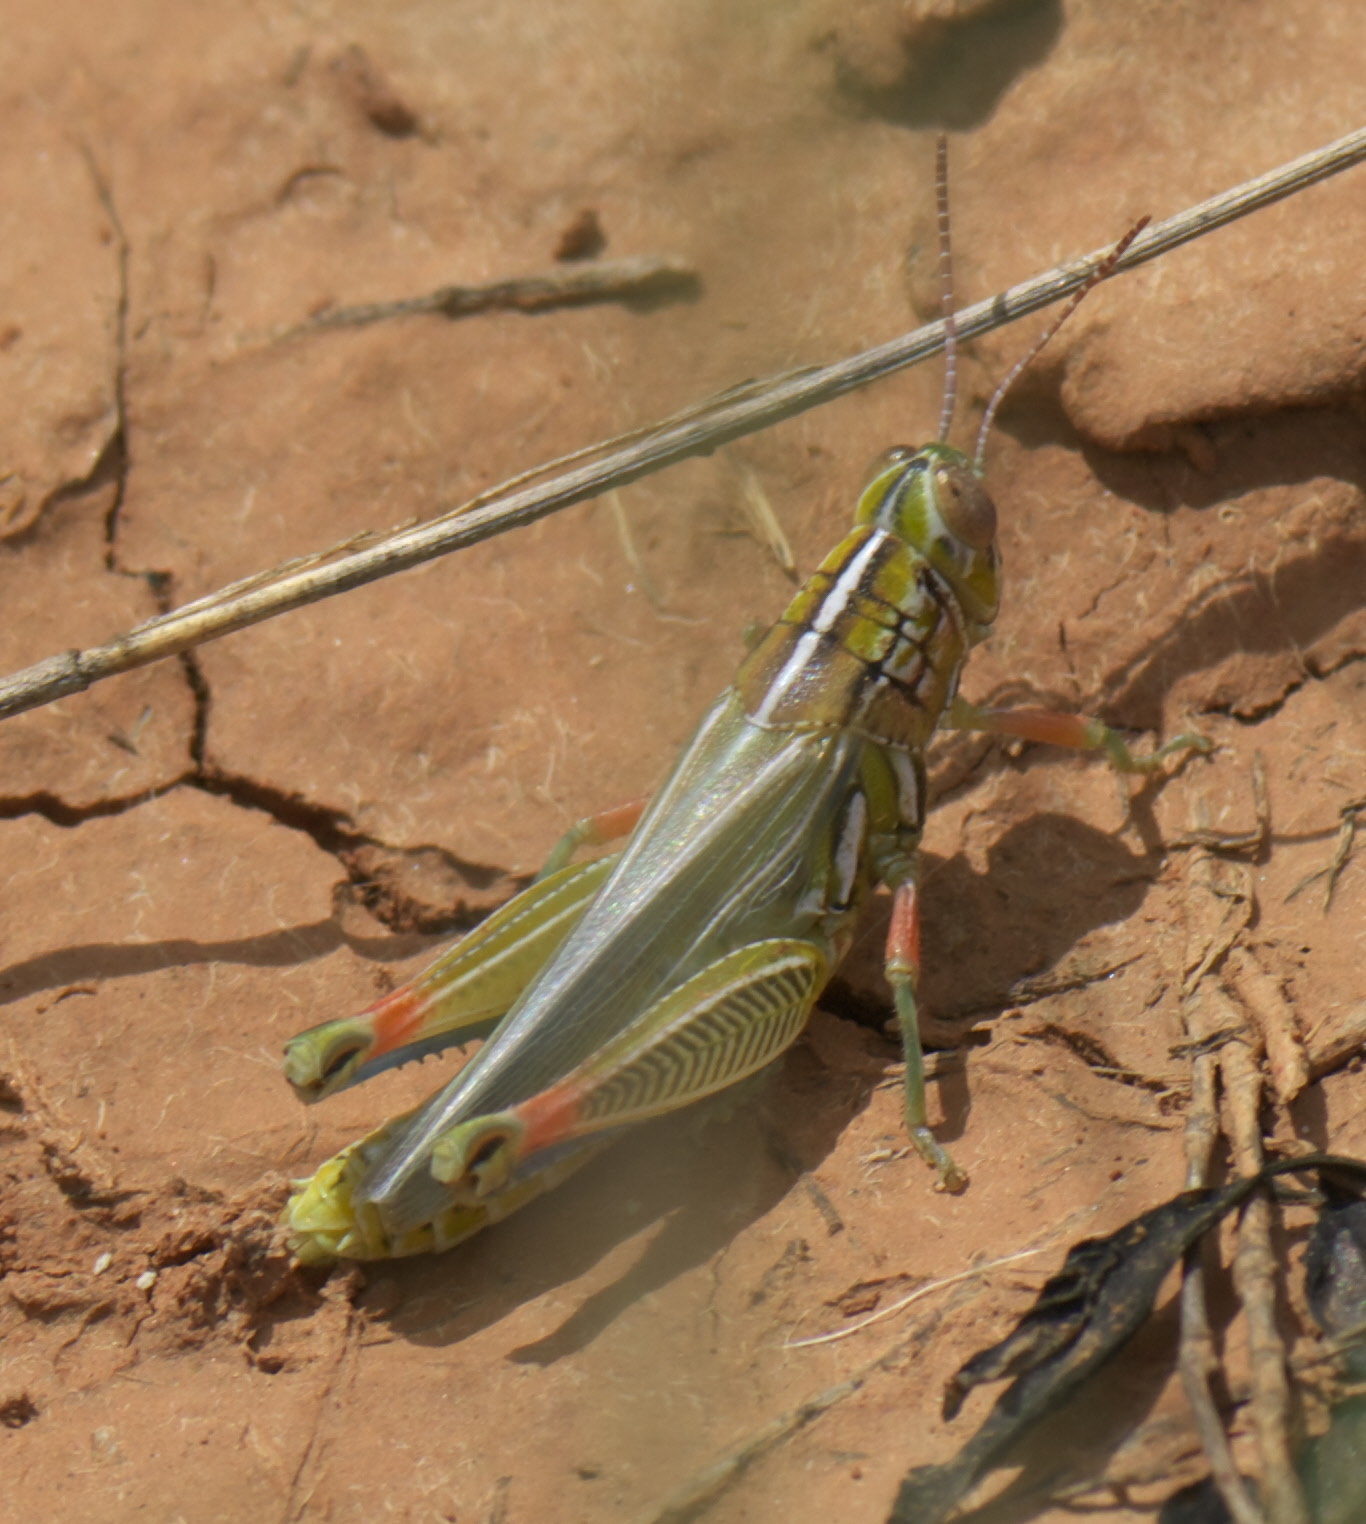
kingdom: Animalia
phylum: Arthropoda
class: Insecta
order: Orthoptera
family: Acrididae
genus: Hesperotettix
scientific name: Hesperotettix viridis
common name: Meadow purple-striped grasshopper
